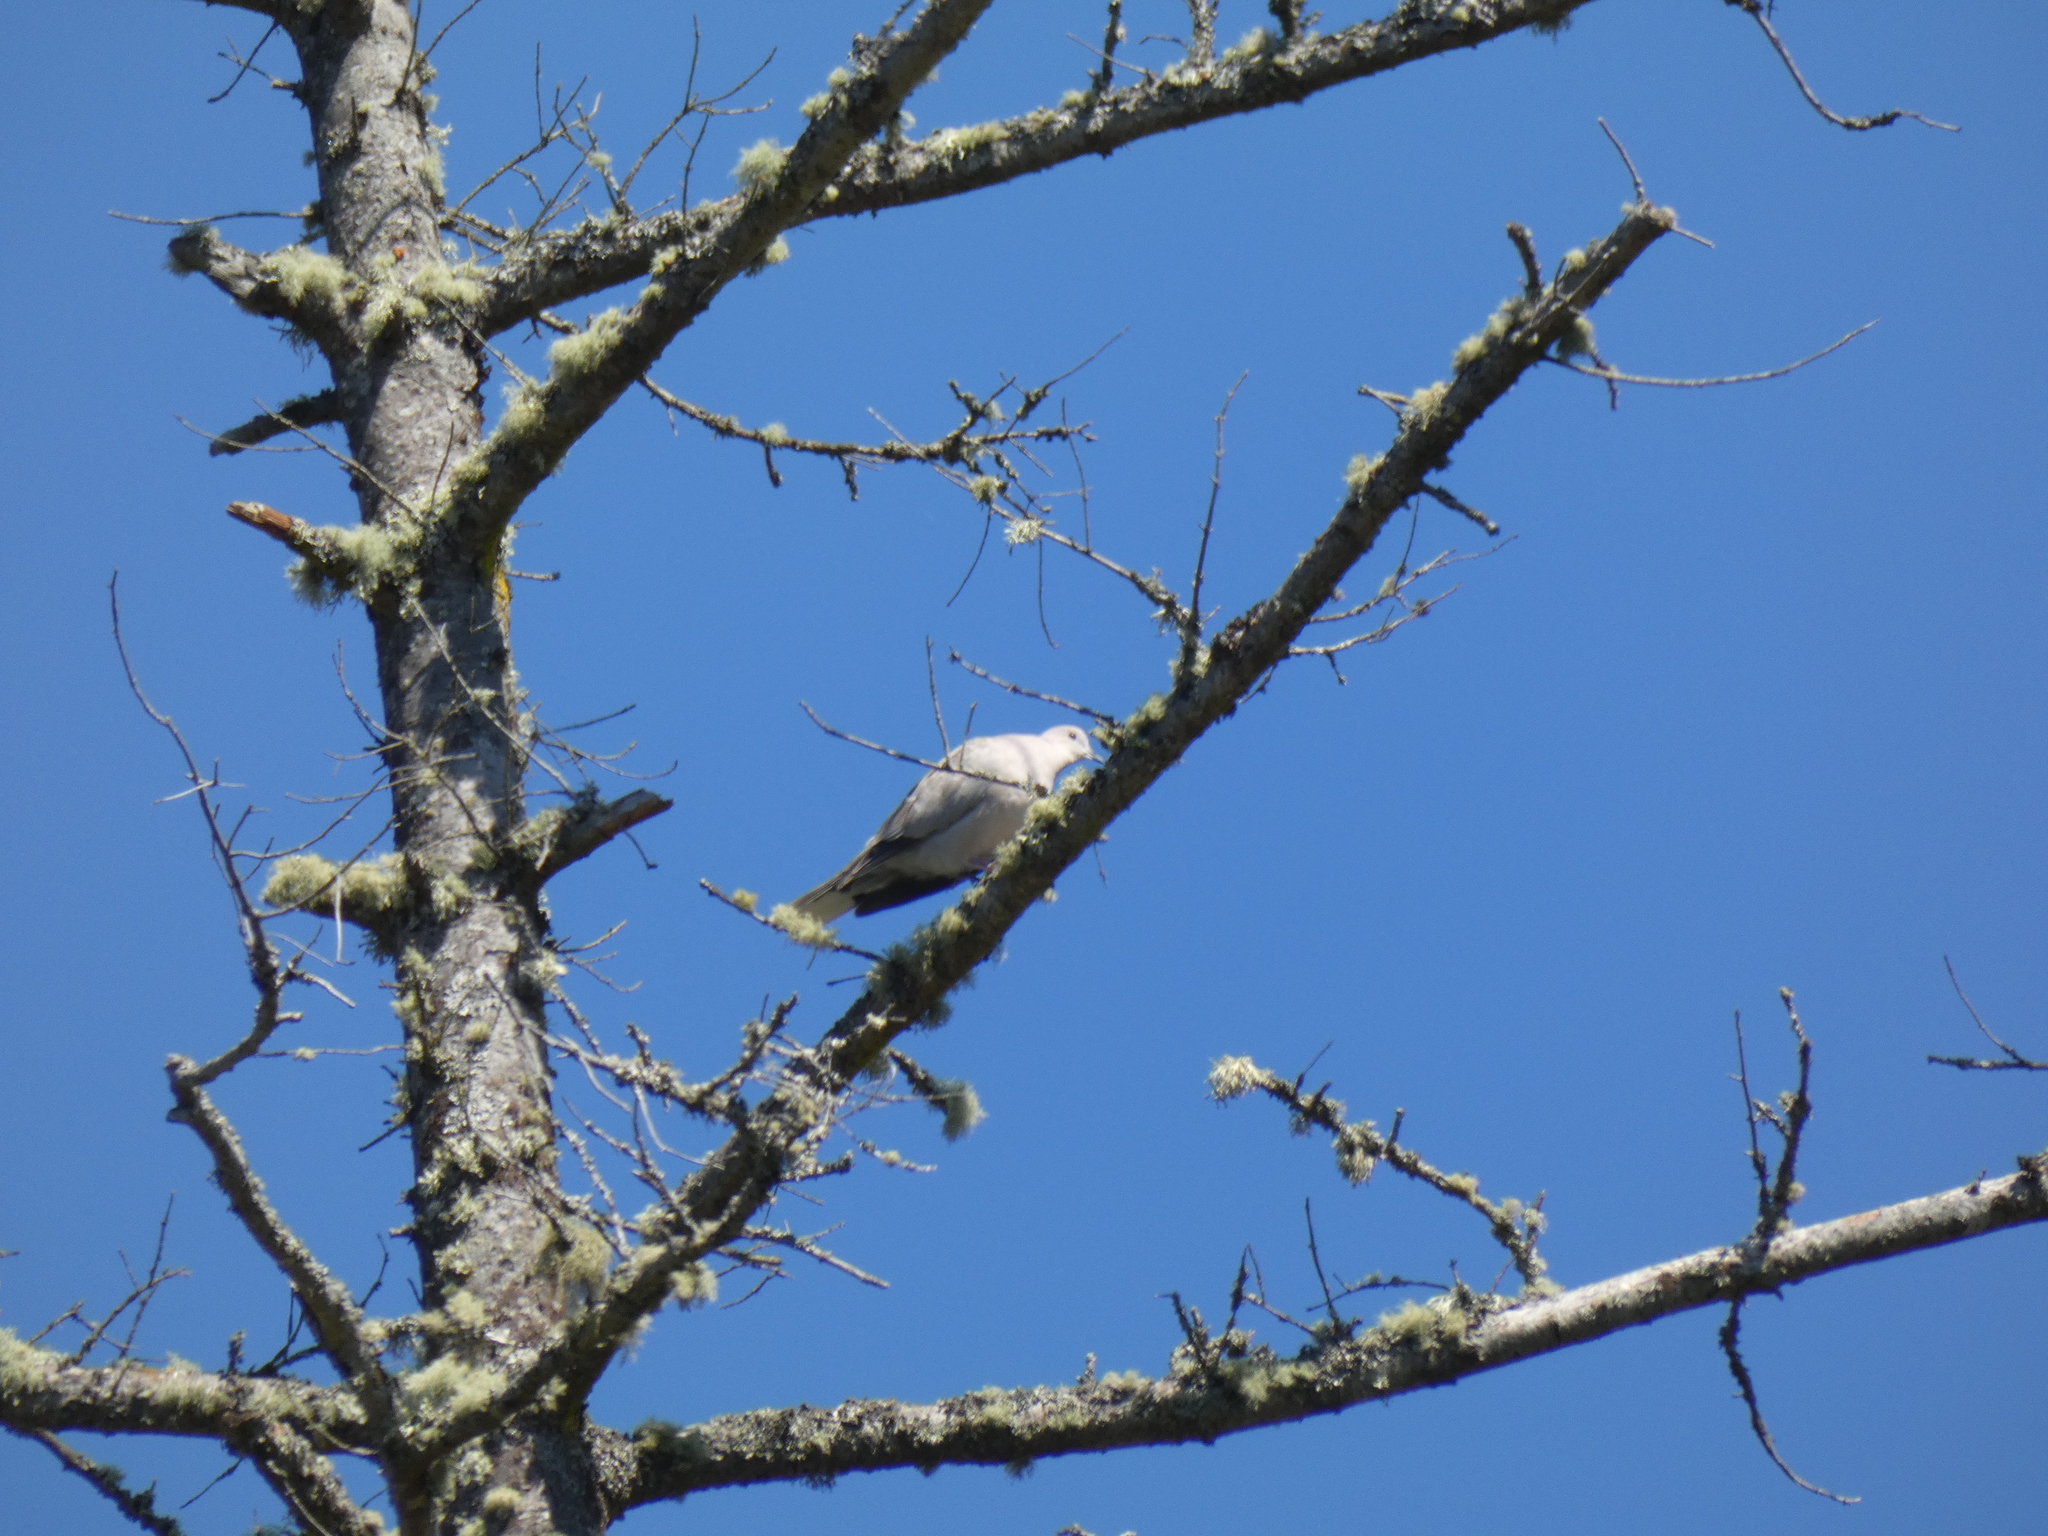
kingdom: Animalia
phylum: Chordata
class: Aves
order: Columbiformes
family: Columbidae
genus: Streptopelia
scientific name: Streptopelia decaocto
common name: Eurasian collared dove
